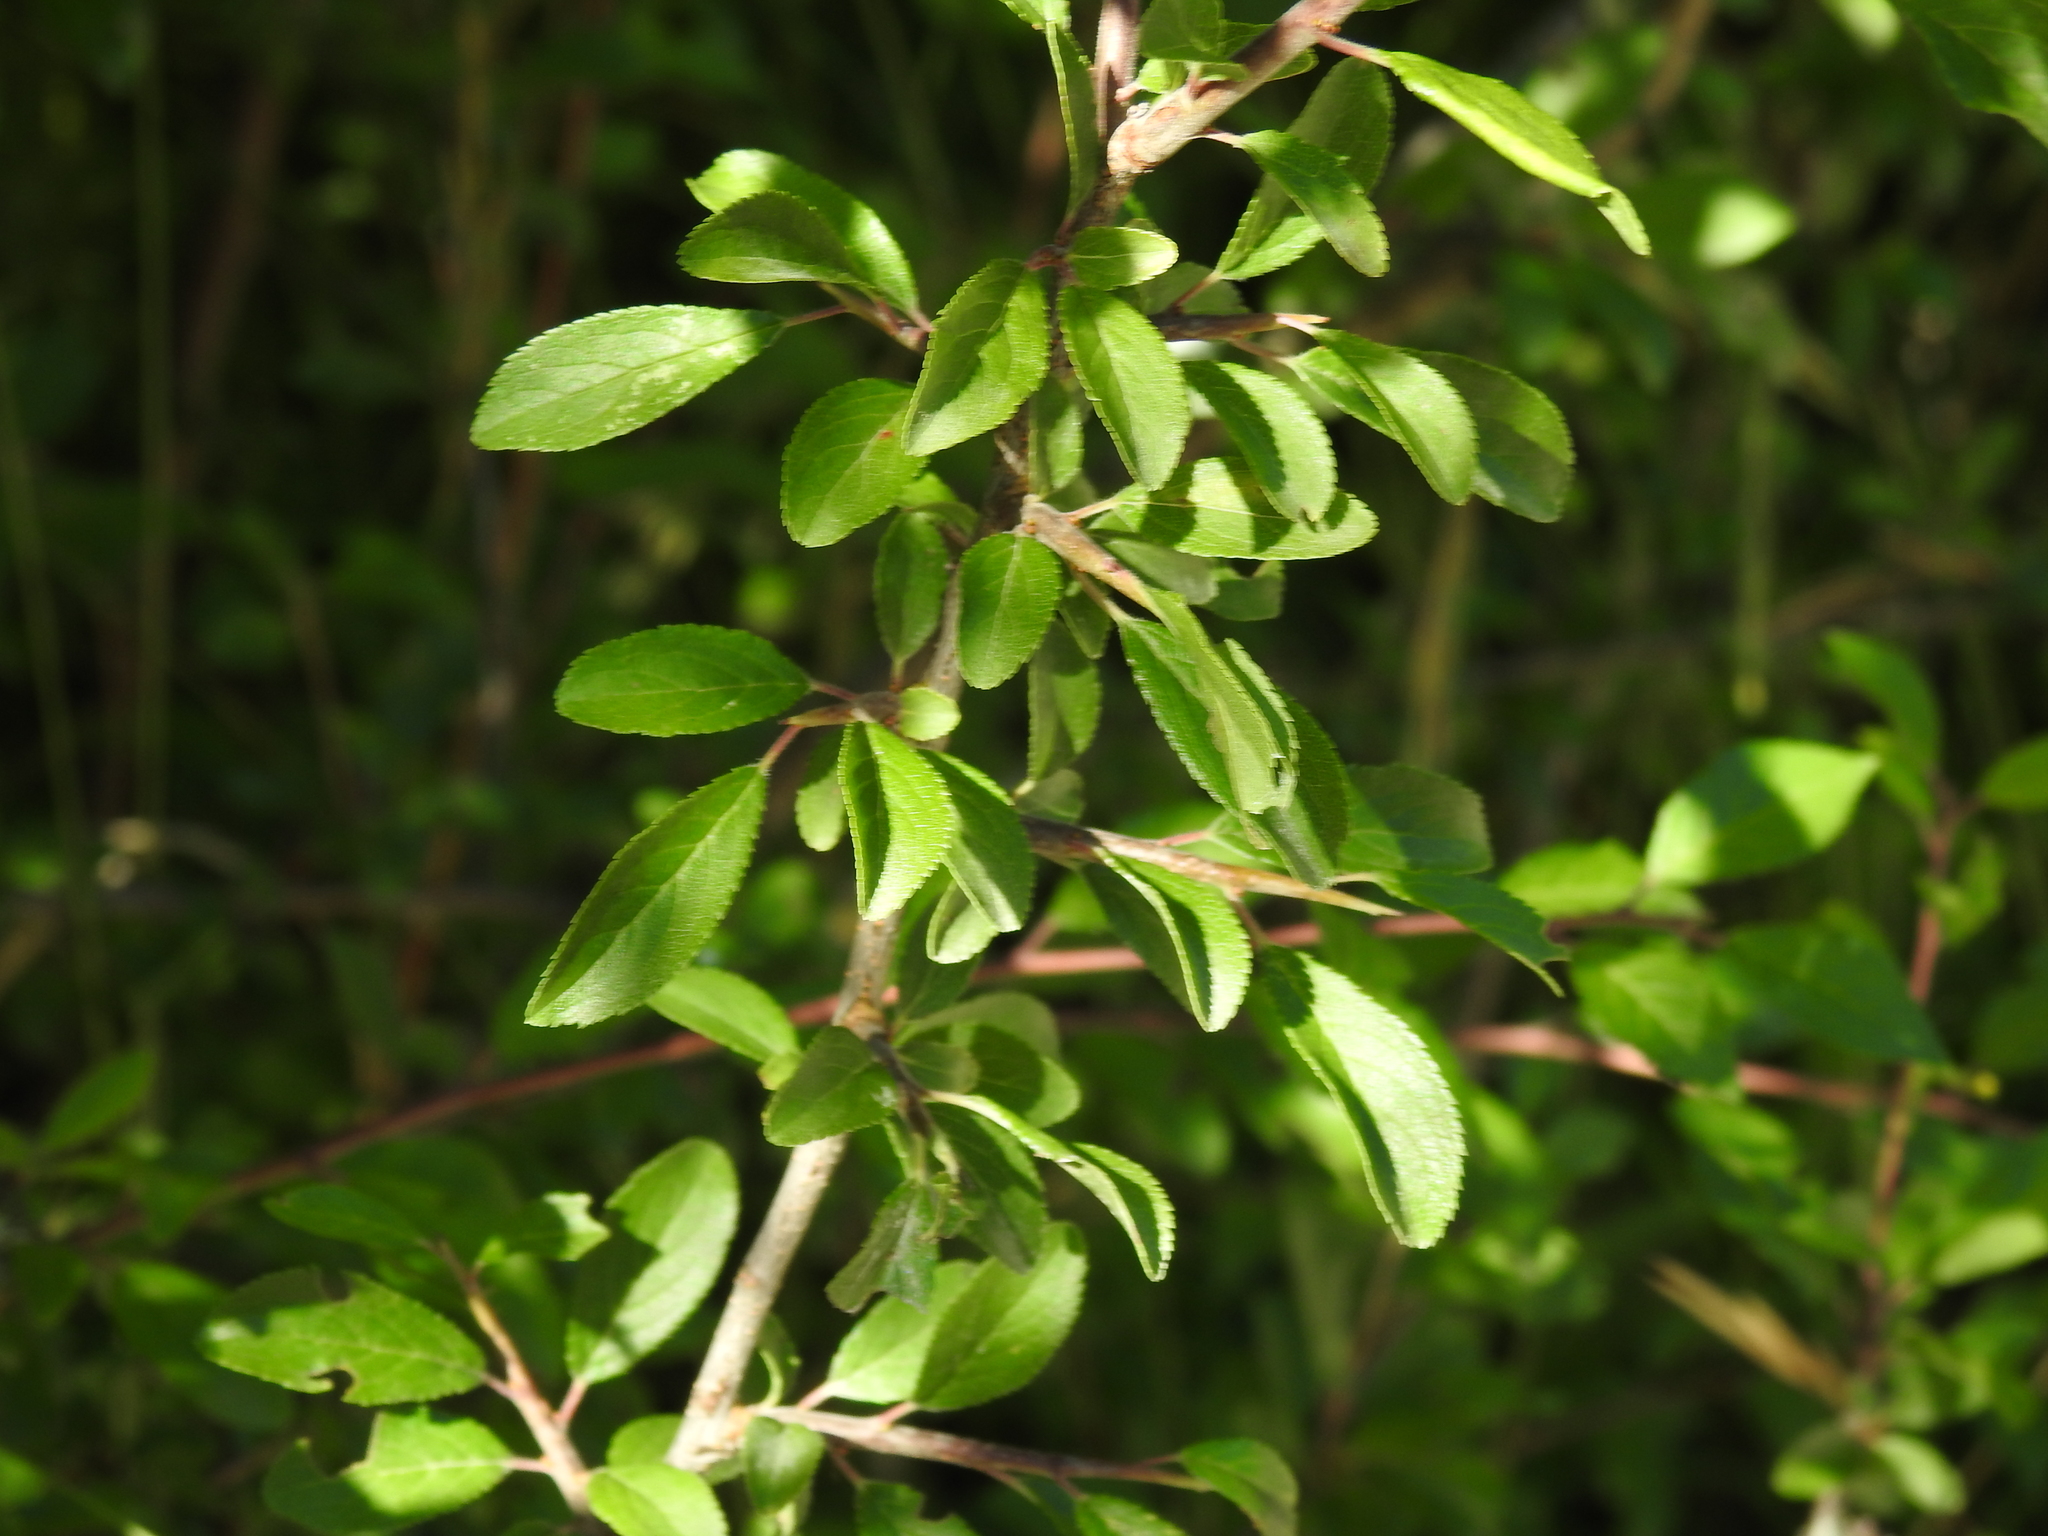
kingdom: Plantae
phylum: Tracheophyta
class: Magnoliopsida
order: Rosales
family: Rosaceae
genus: Prunus
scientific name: Prunus spinosa
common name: Blackthorn
